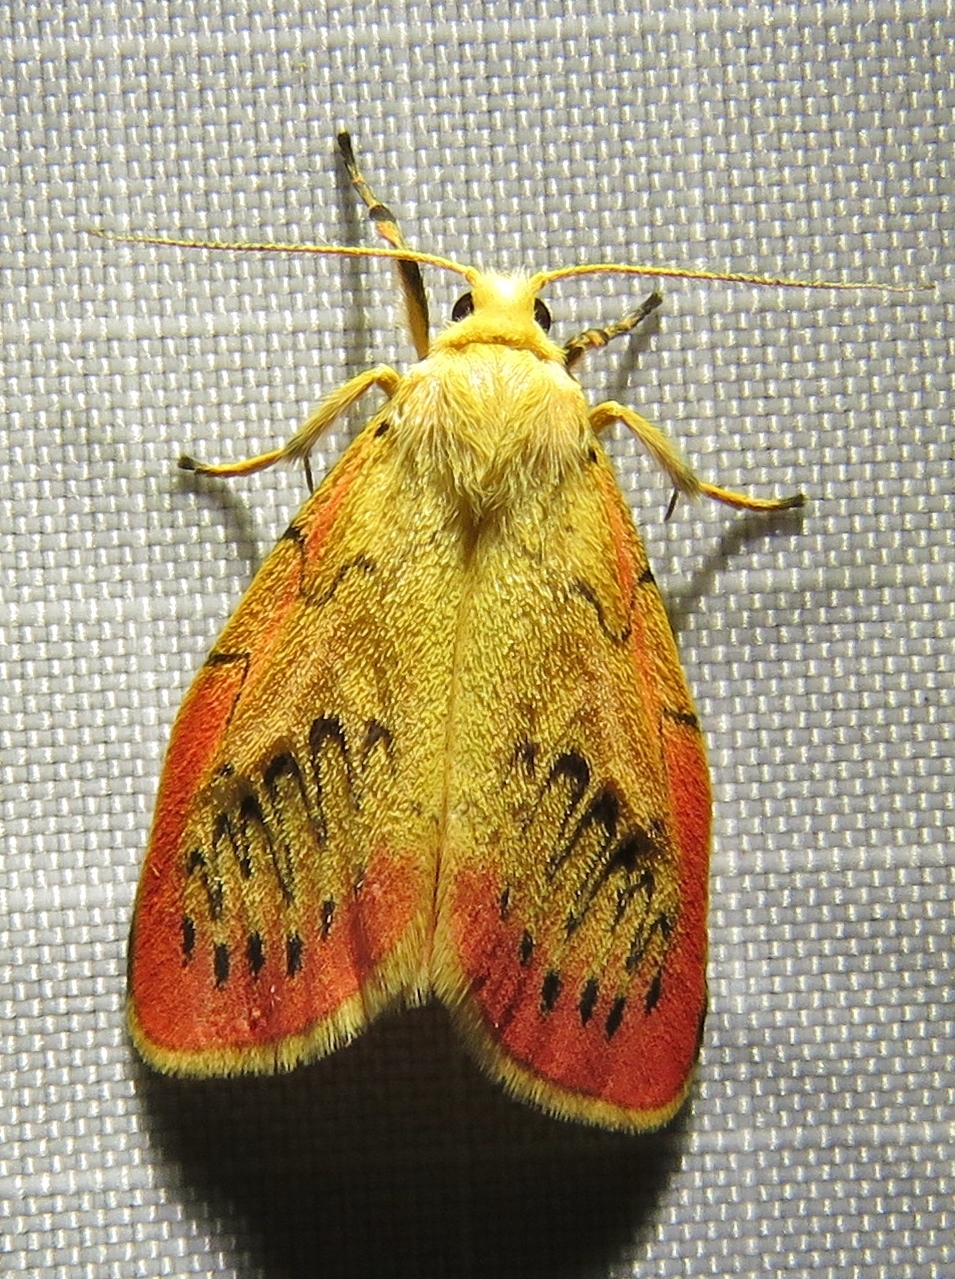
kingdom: Animalia
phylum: Arthropoda
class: Insecta
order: Lepidoptera
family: Erebidae
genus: Miltochrista
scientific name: Miltochrista miniata
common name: Rosy footman
